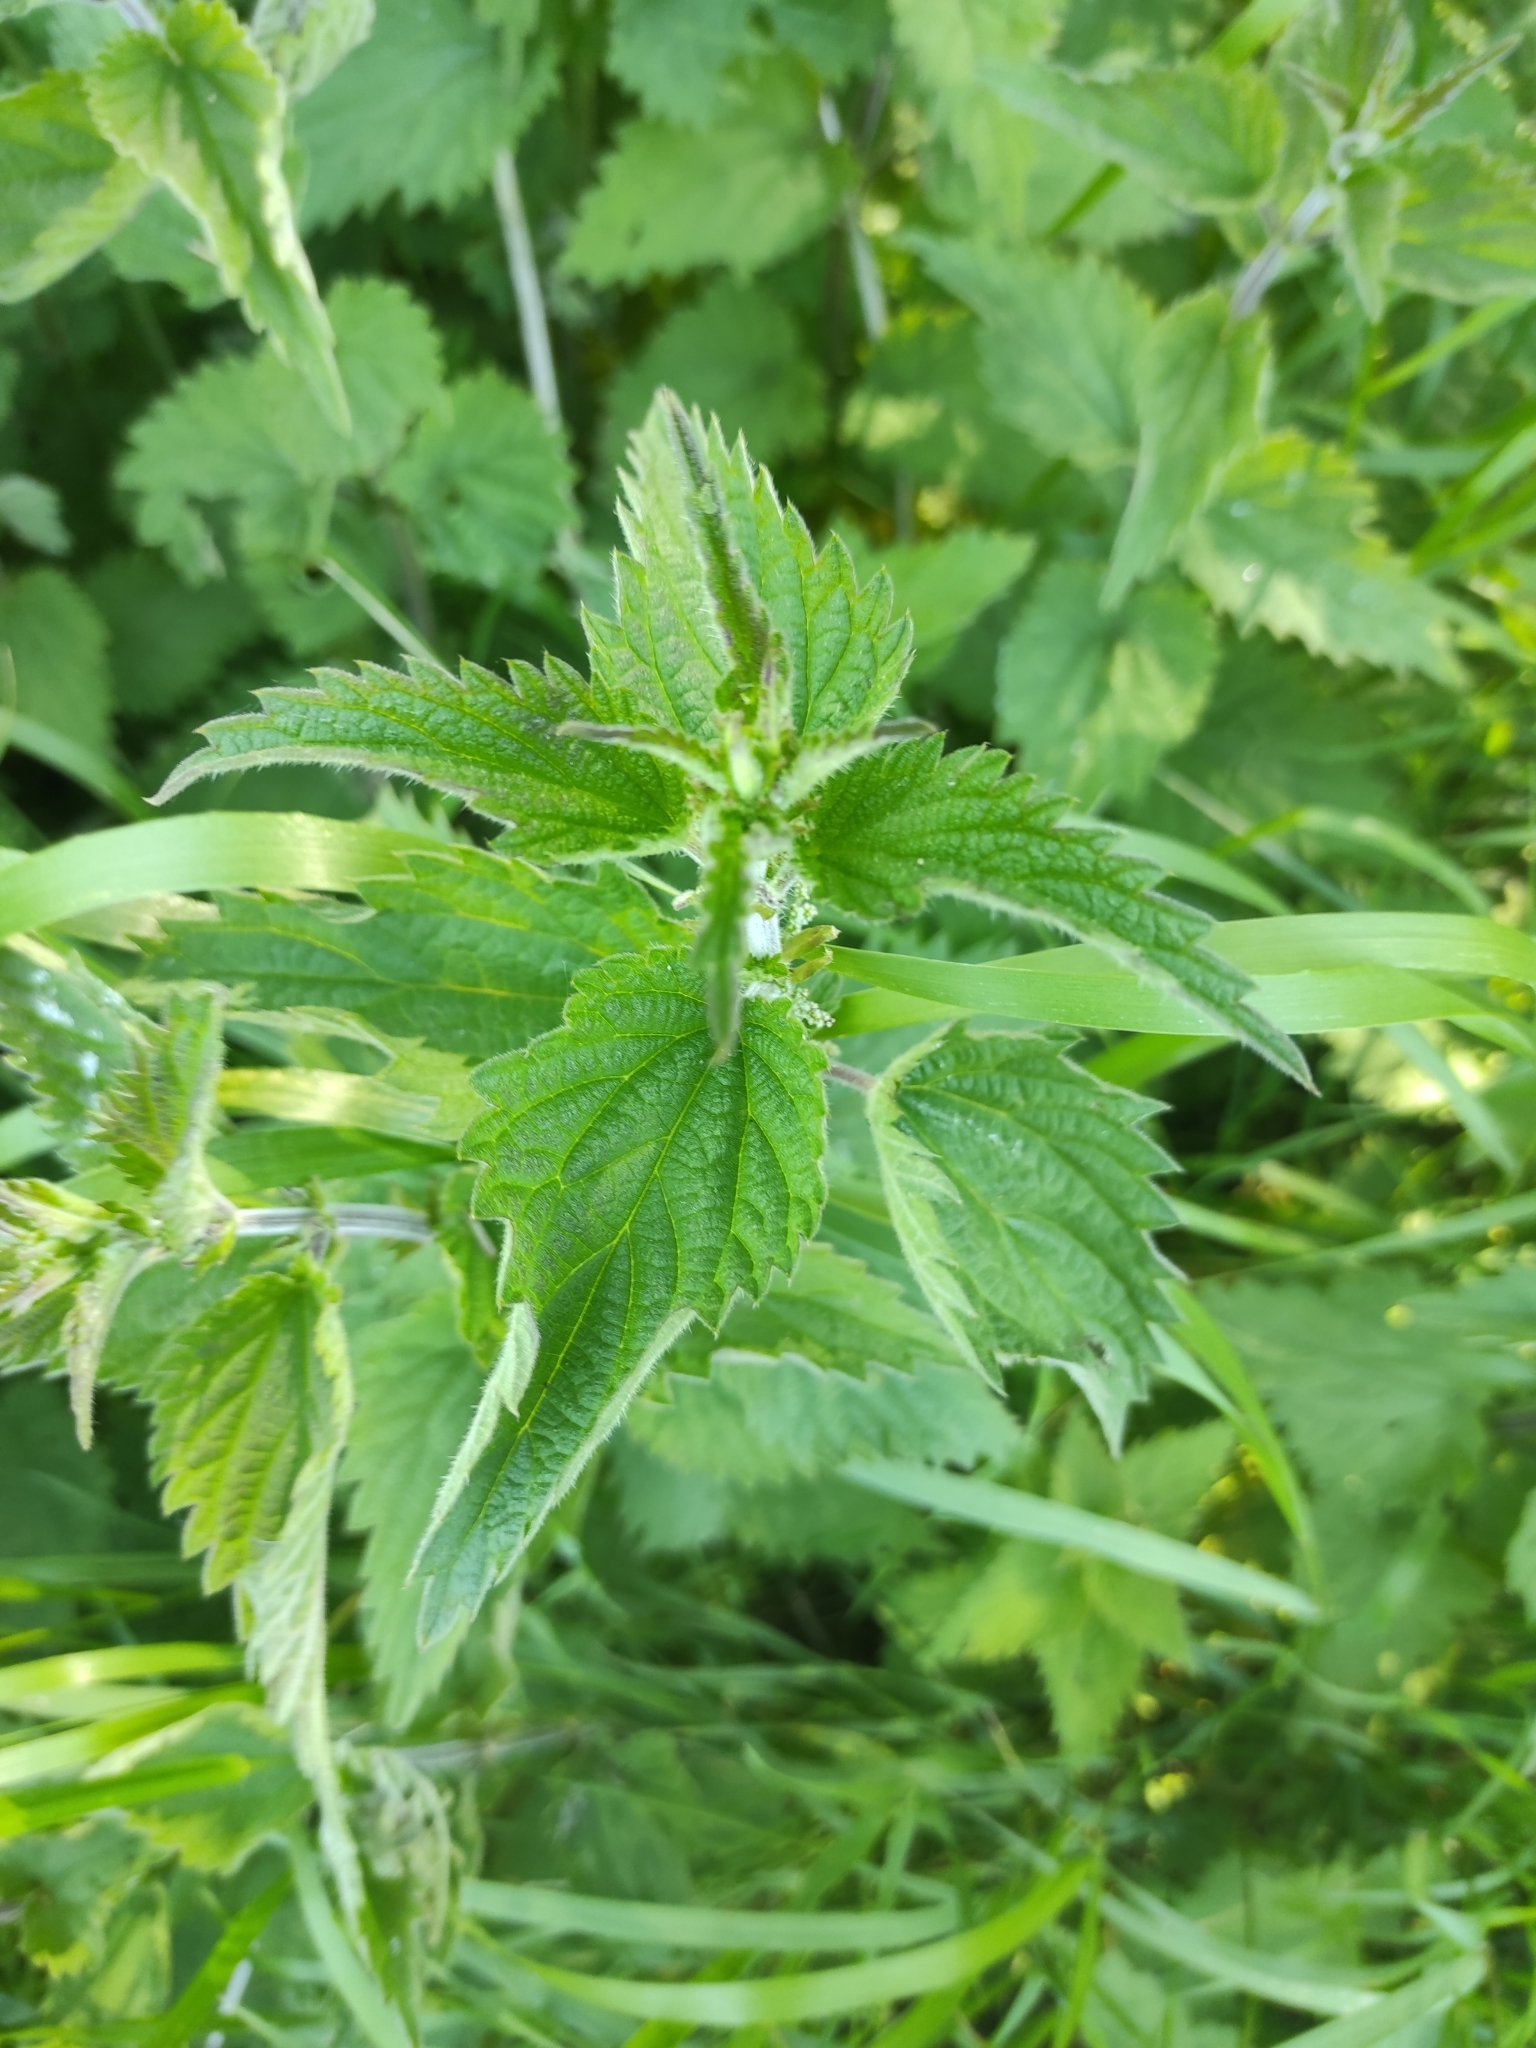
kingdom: Plantae
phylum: Tracheophyta
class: Magnoliopsida
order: Rosales
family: Urticaceae
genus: Urtica
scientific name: Urtica dioica
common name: Common nettle
